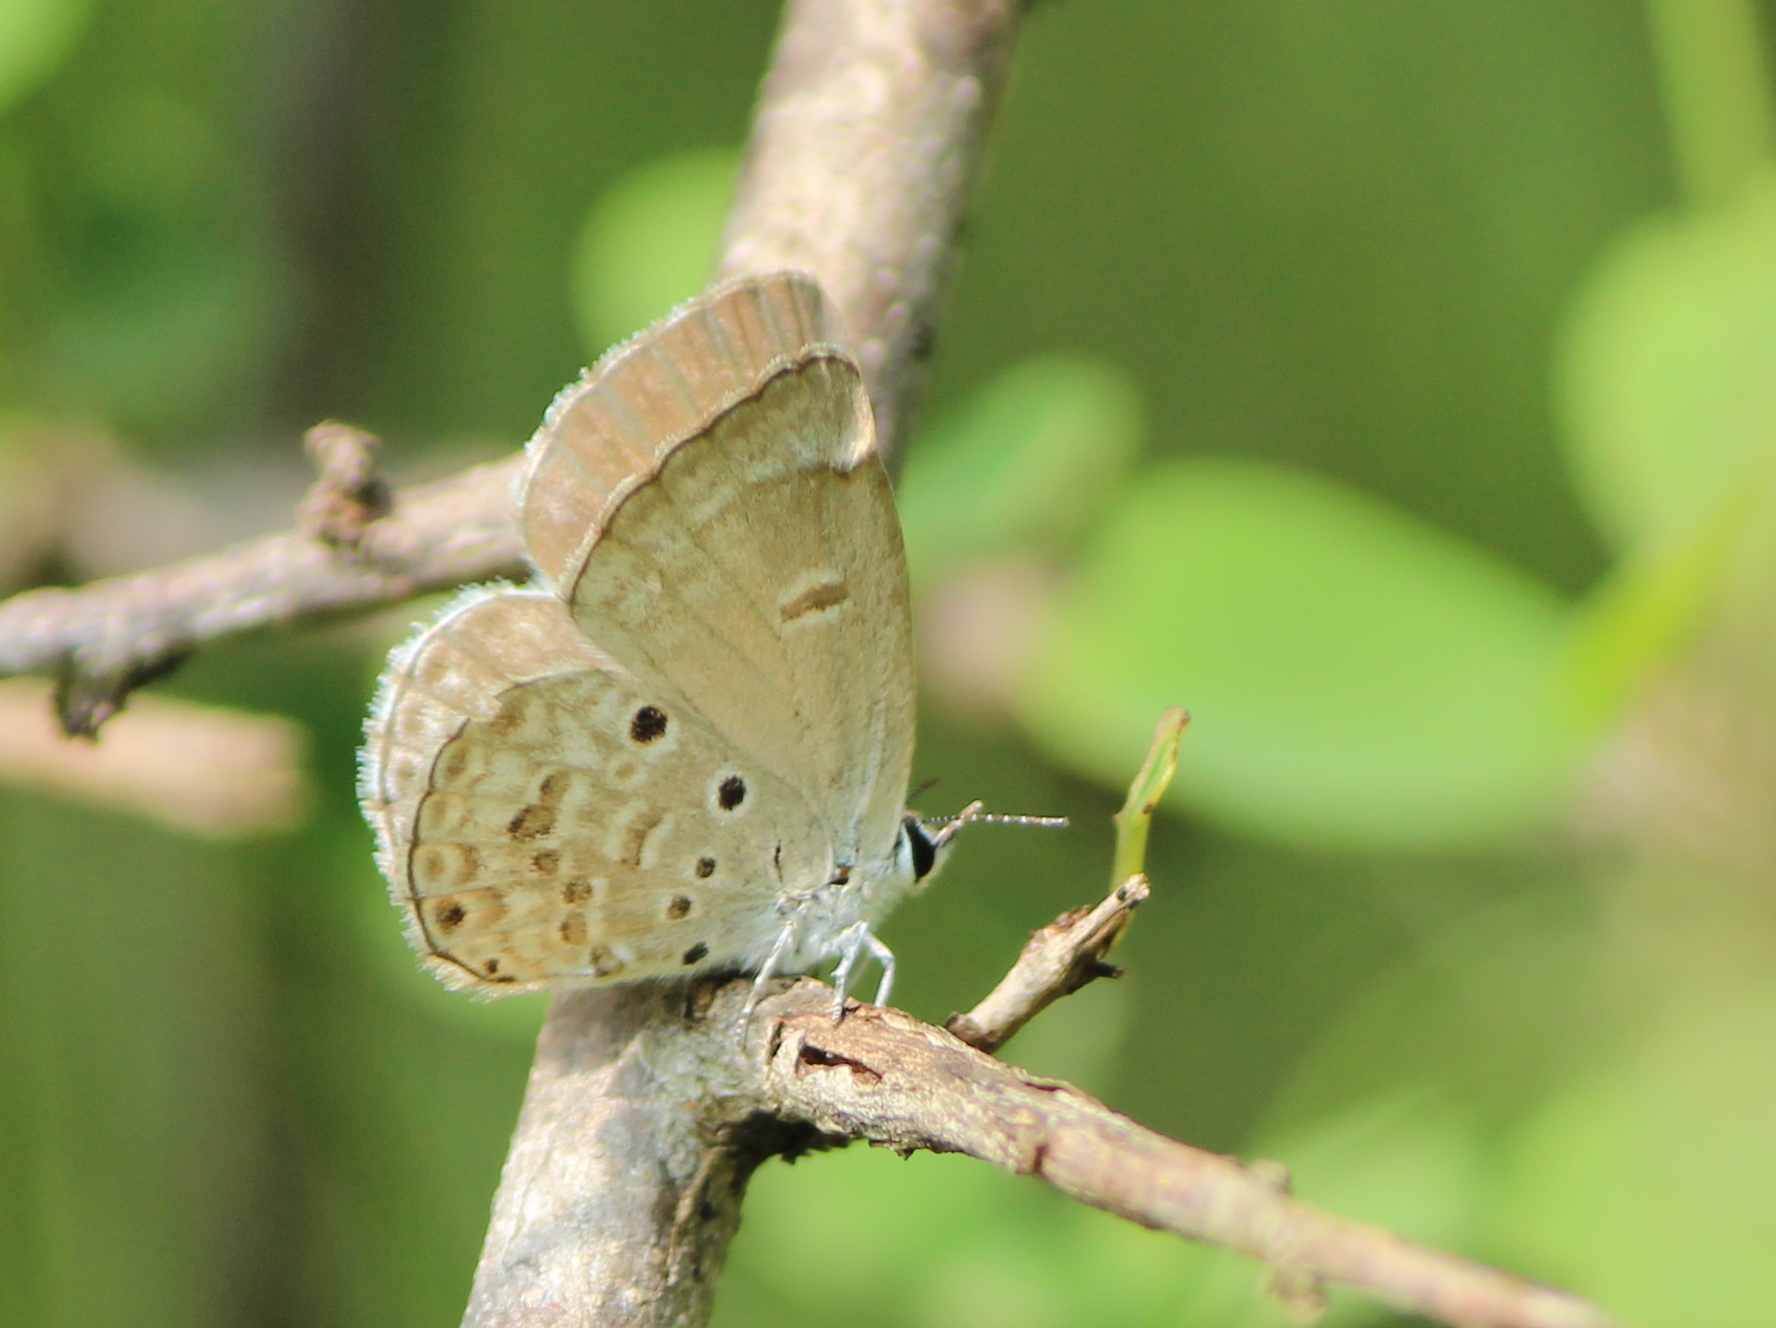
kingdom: Animalia
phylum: Arthropoda
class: Insecta
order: Lepidoptera
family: Lycaenidae
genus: Chilades
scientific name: Chilades laius
